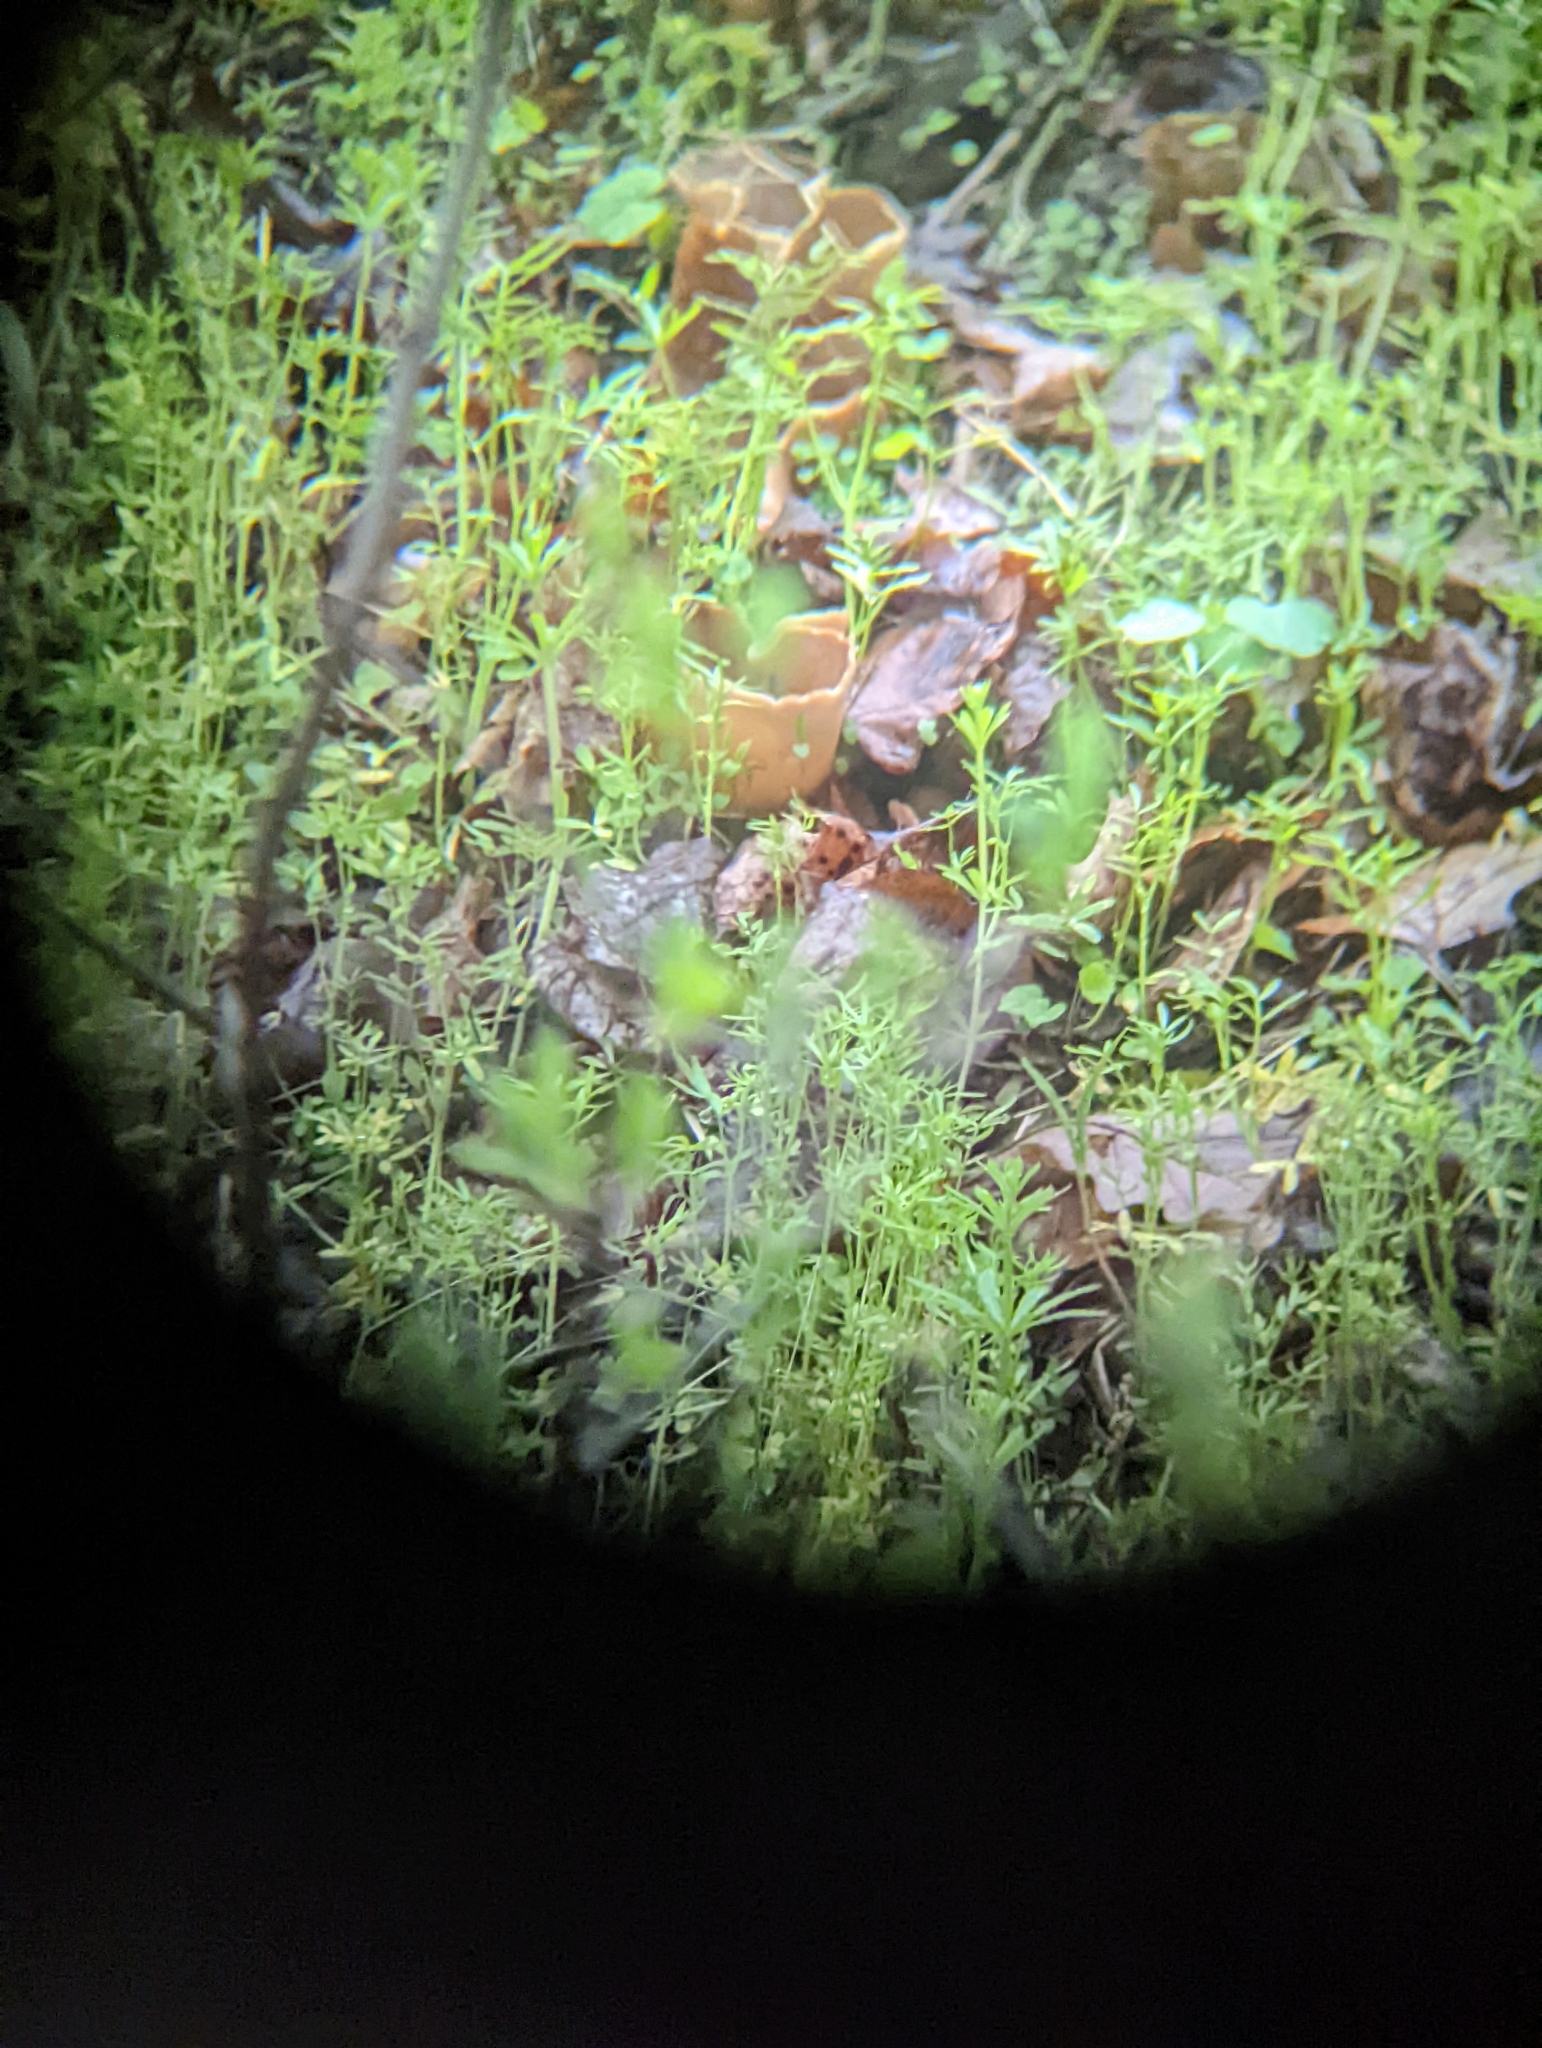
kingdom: Fungi
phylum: Ascomycota
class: Pezizomycetes
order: Pezizales
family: Morchellaceae
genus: Disciotis
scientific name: Disciotis venosa
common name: Bleach cup
